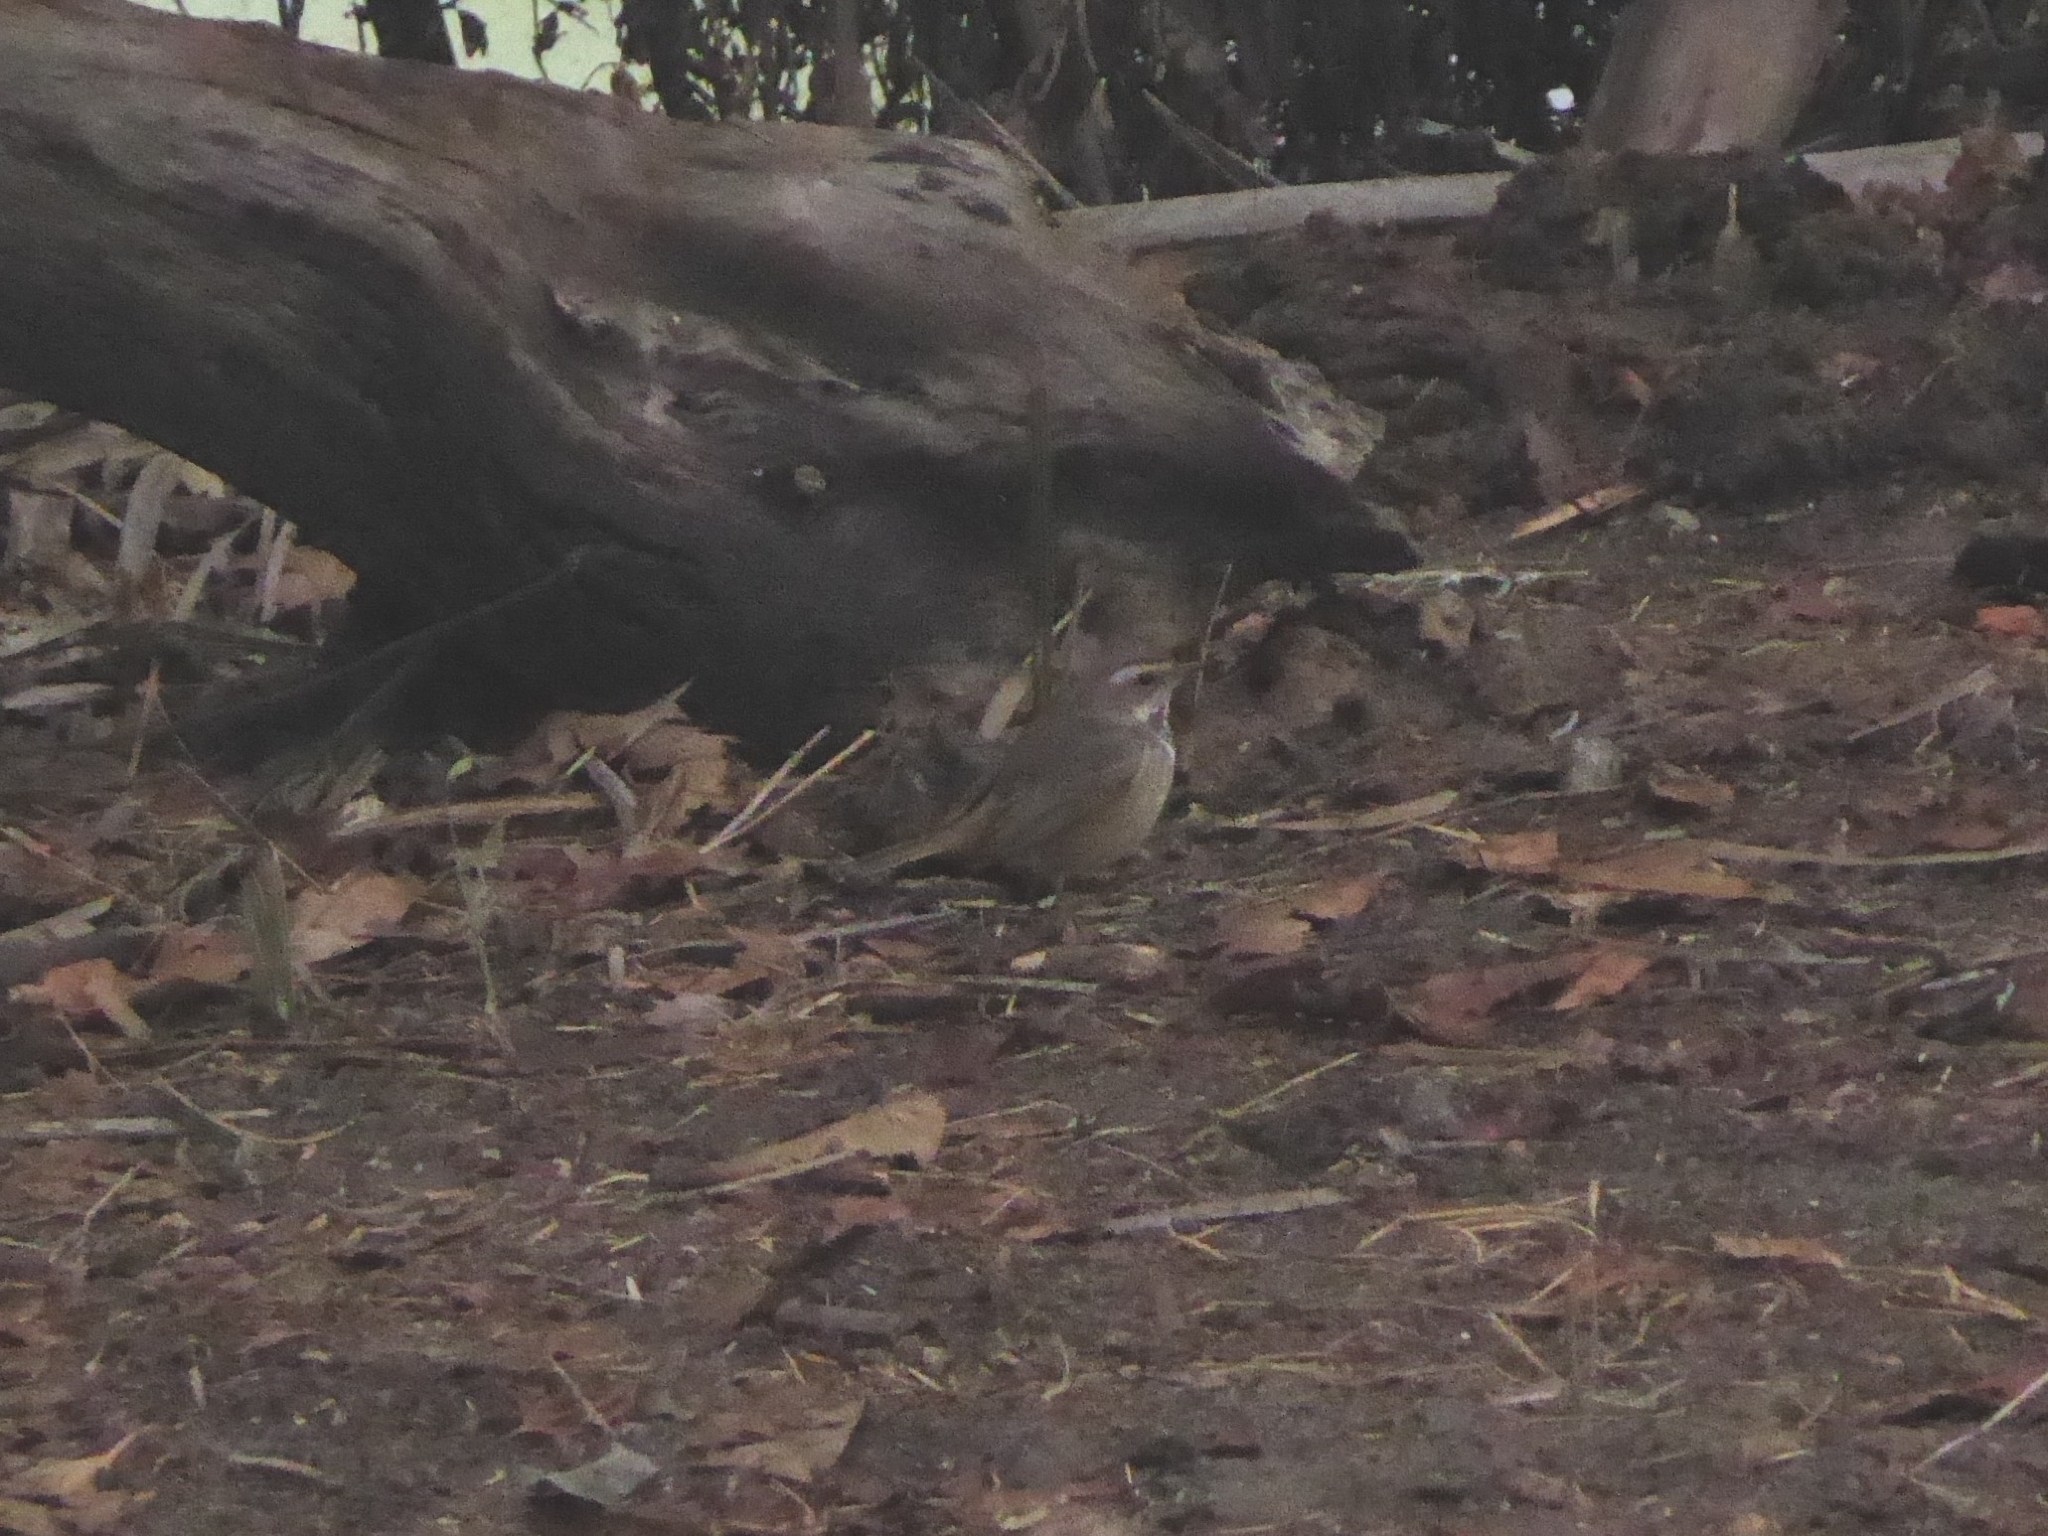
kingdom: Animalia
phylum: Chordata
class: Aves
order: Passeriformes
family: Muscicapidae
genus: Luscinia
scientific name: Luscinia svecica
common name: Bluethroat
